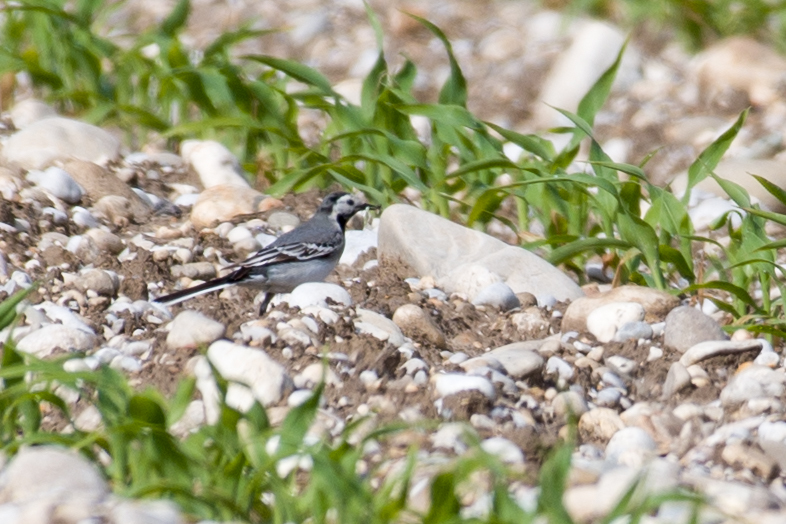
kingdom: Animalia
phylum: Chordata
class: Aves
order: Passeriformes
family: Motacillidae
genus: Motacilla
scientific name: Motacilla alba
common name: White wagtail
